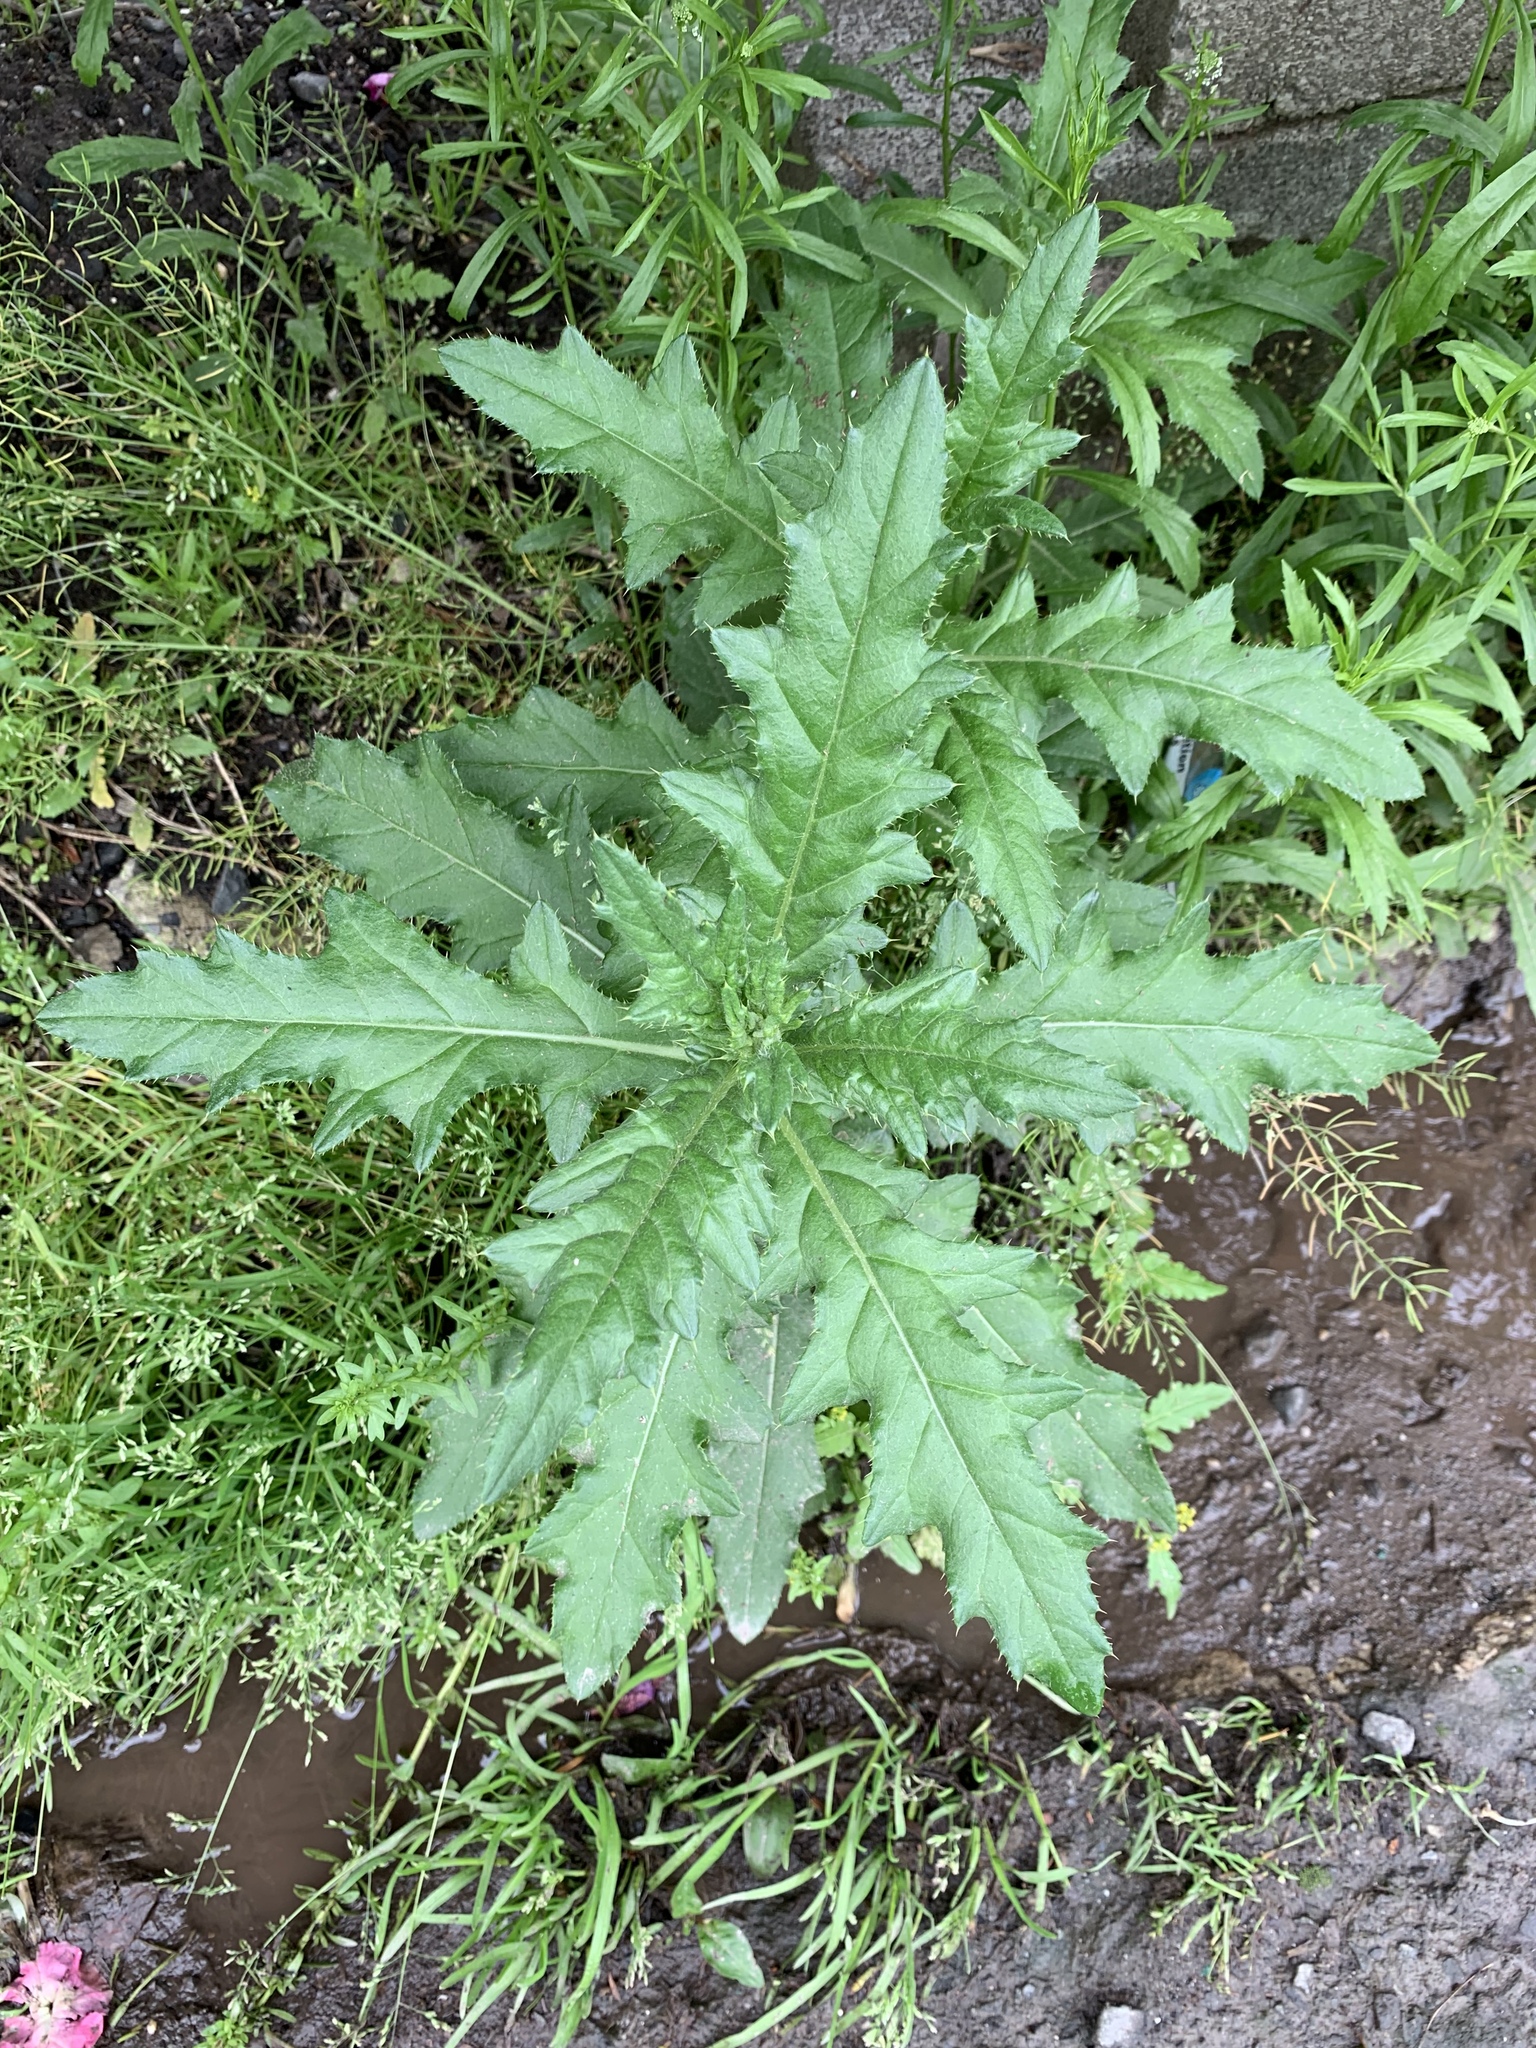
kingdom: Plantae
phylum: Tracheophyta
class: Magnoliopsida
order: Asterales
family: Asteraceae
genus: Cirsium
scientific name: Cirsium arvense
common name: Creeping thistle
